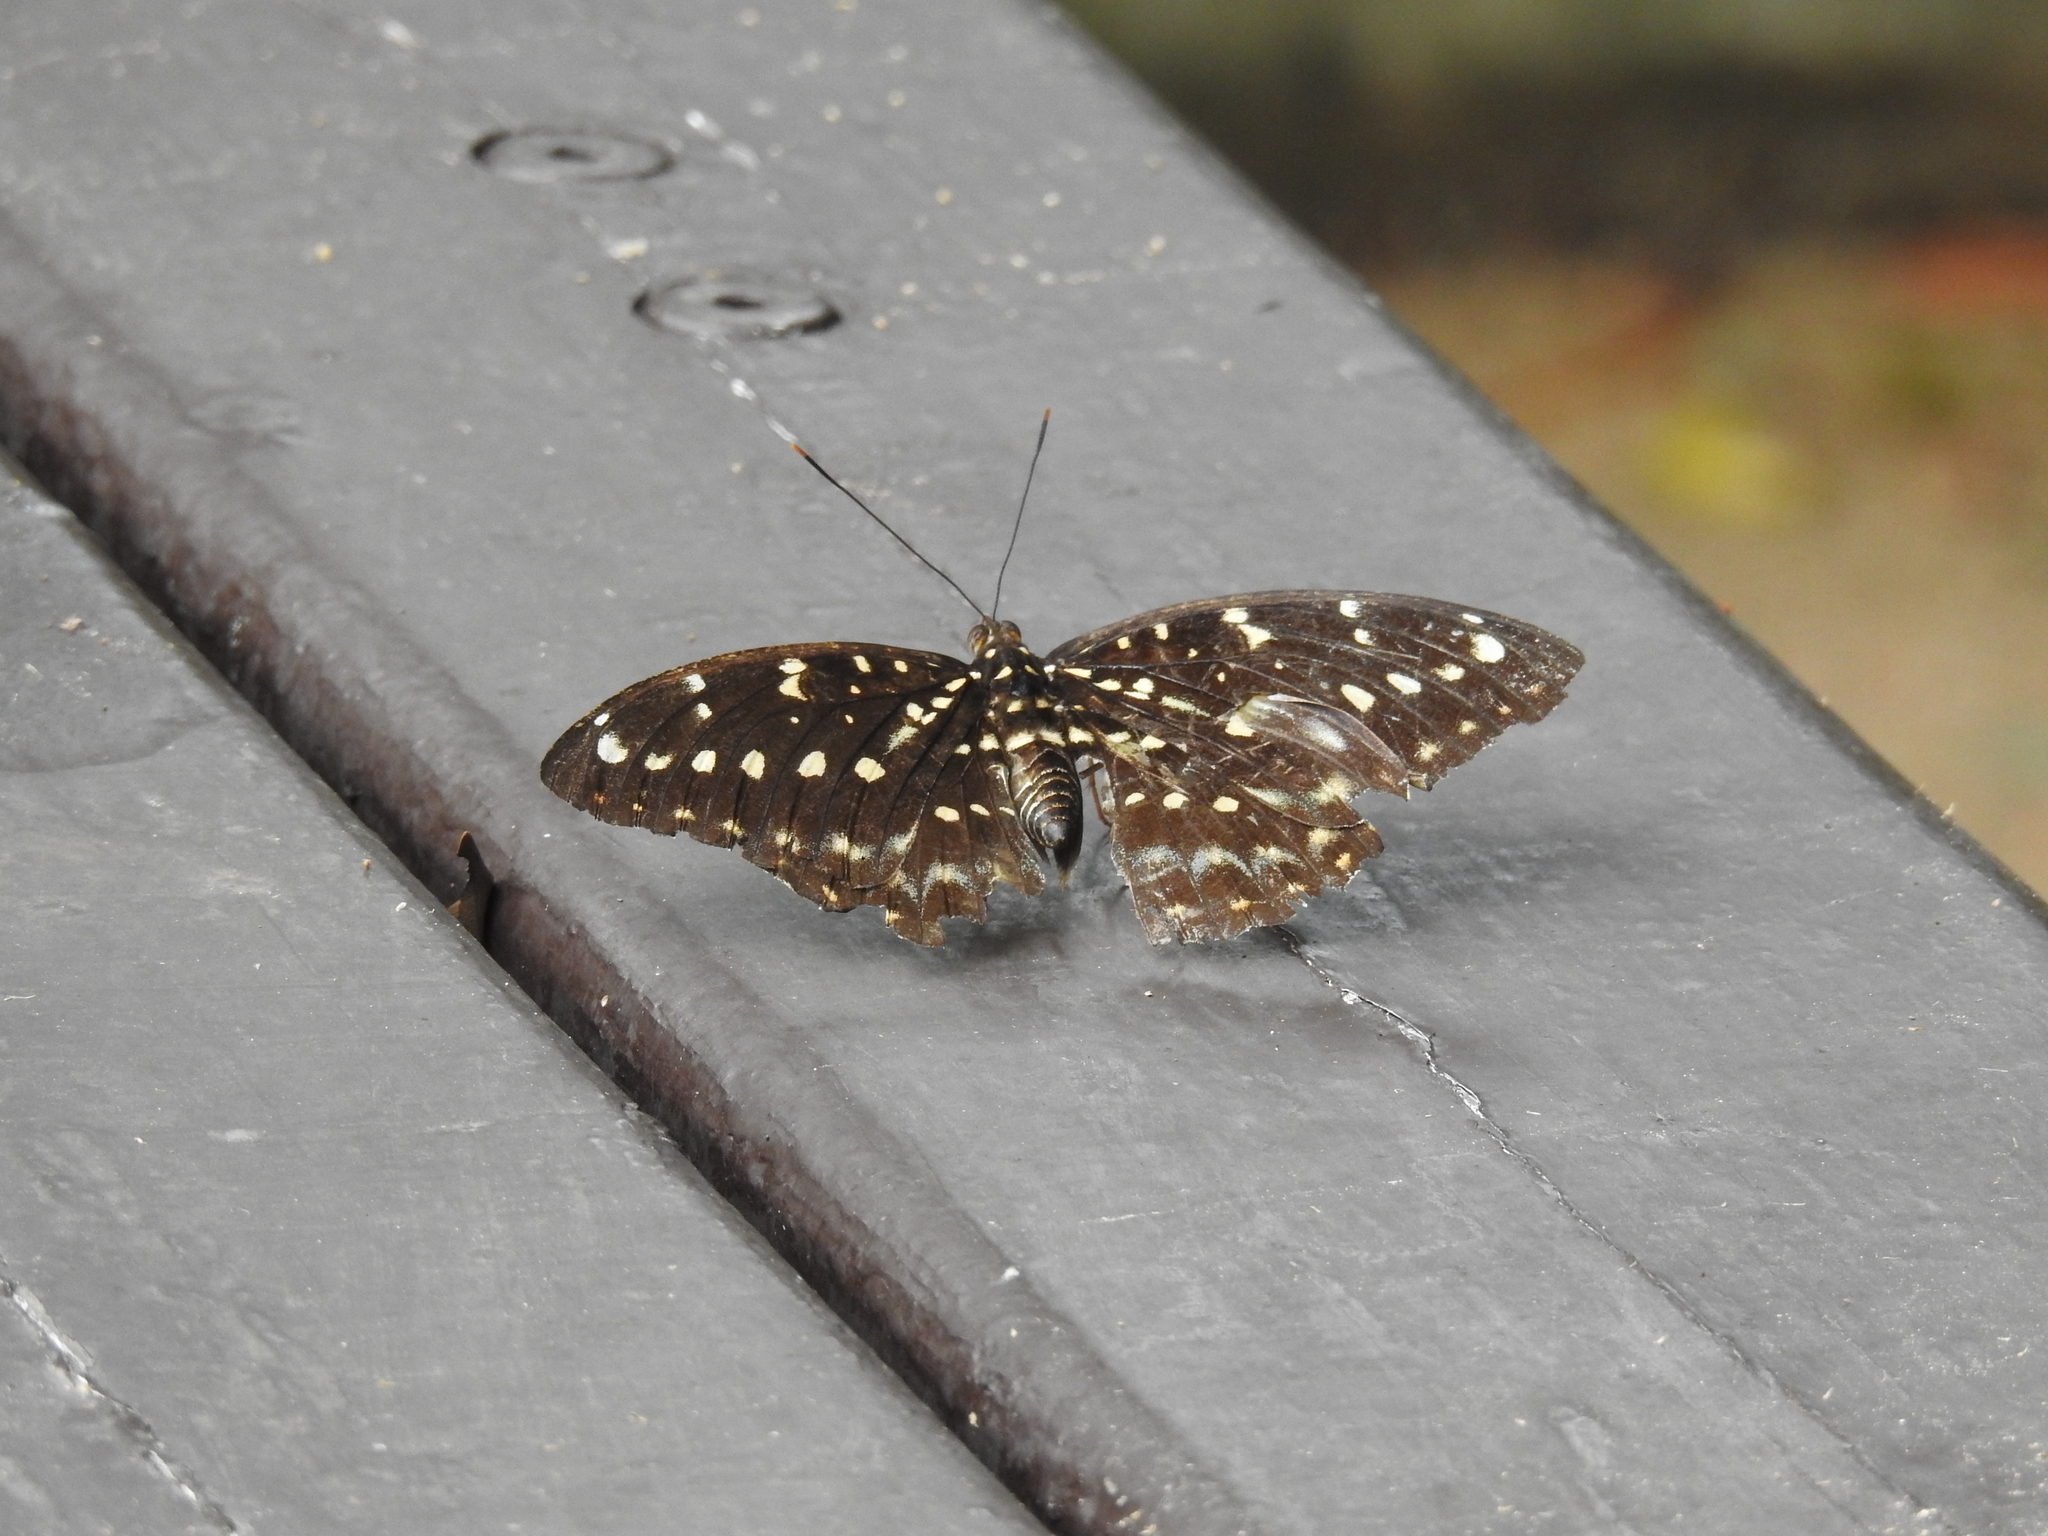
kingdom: Animalia
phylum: Arthropoda
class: Insecta
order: Lepidoptera
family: Nymphalidae
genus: Lexias
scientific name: Lexias pardalis
